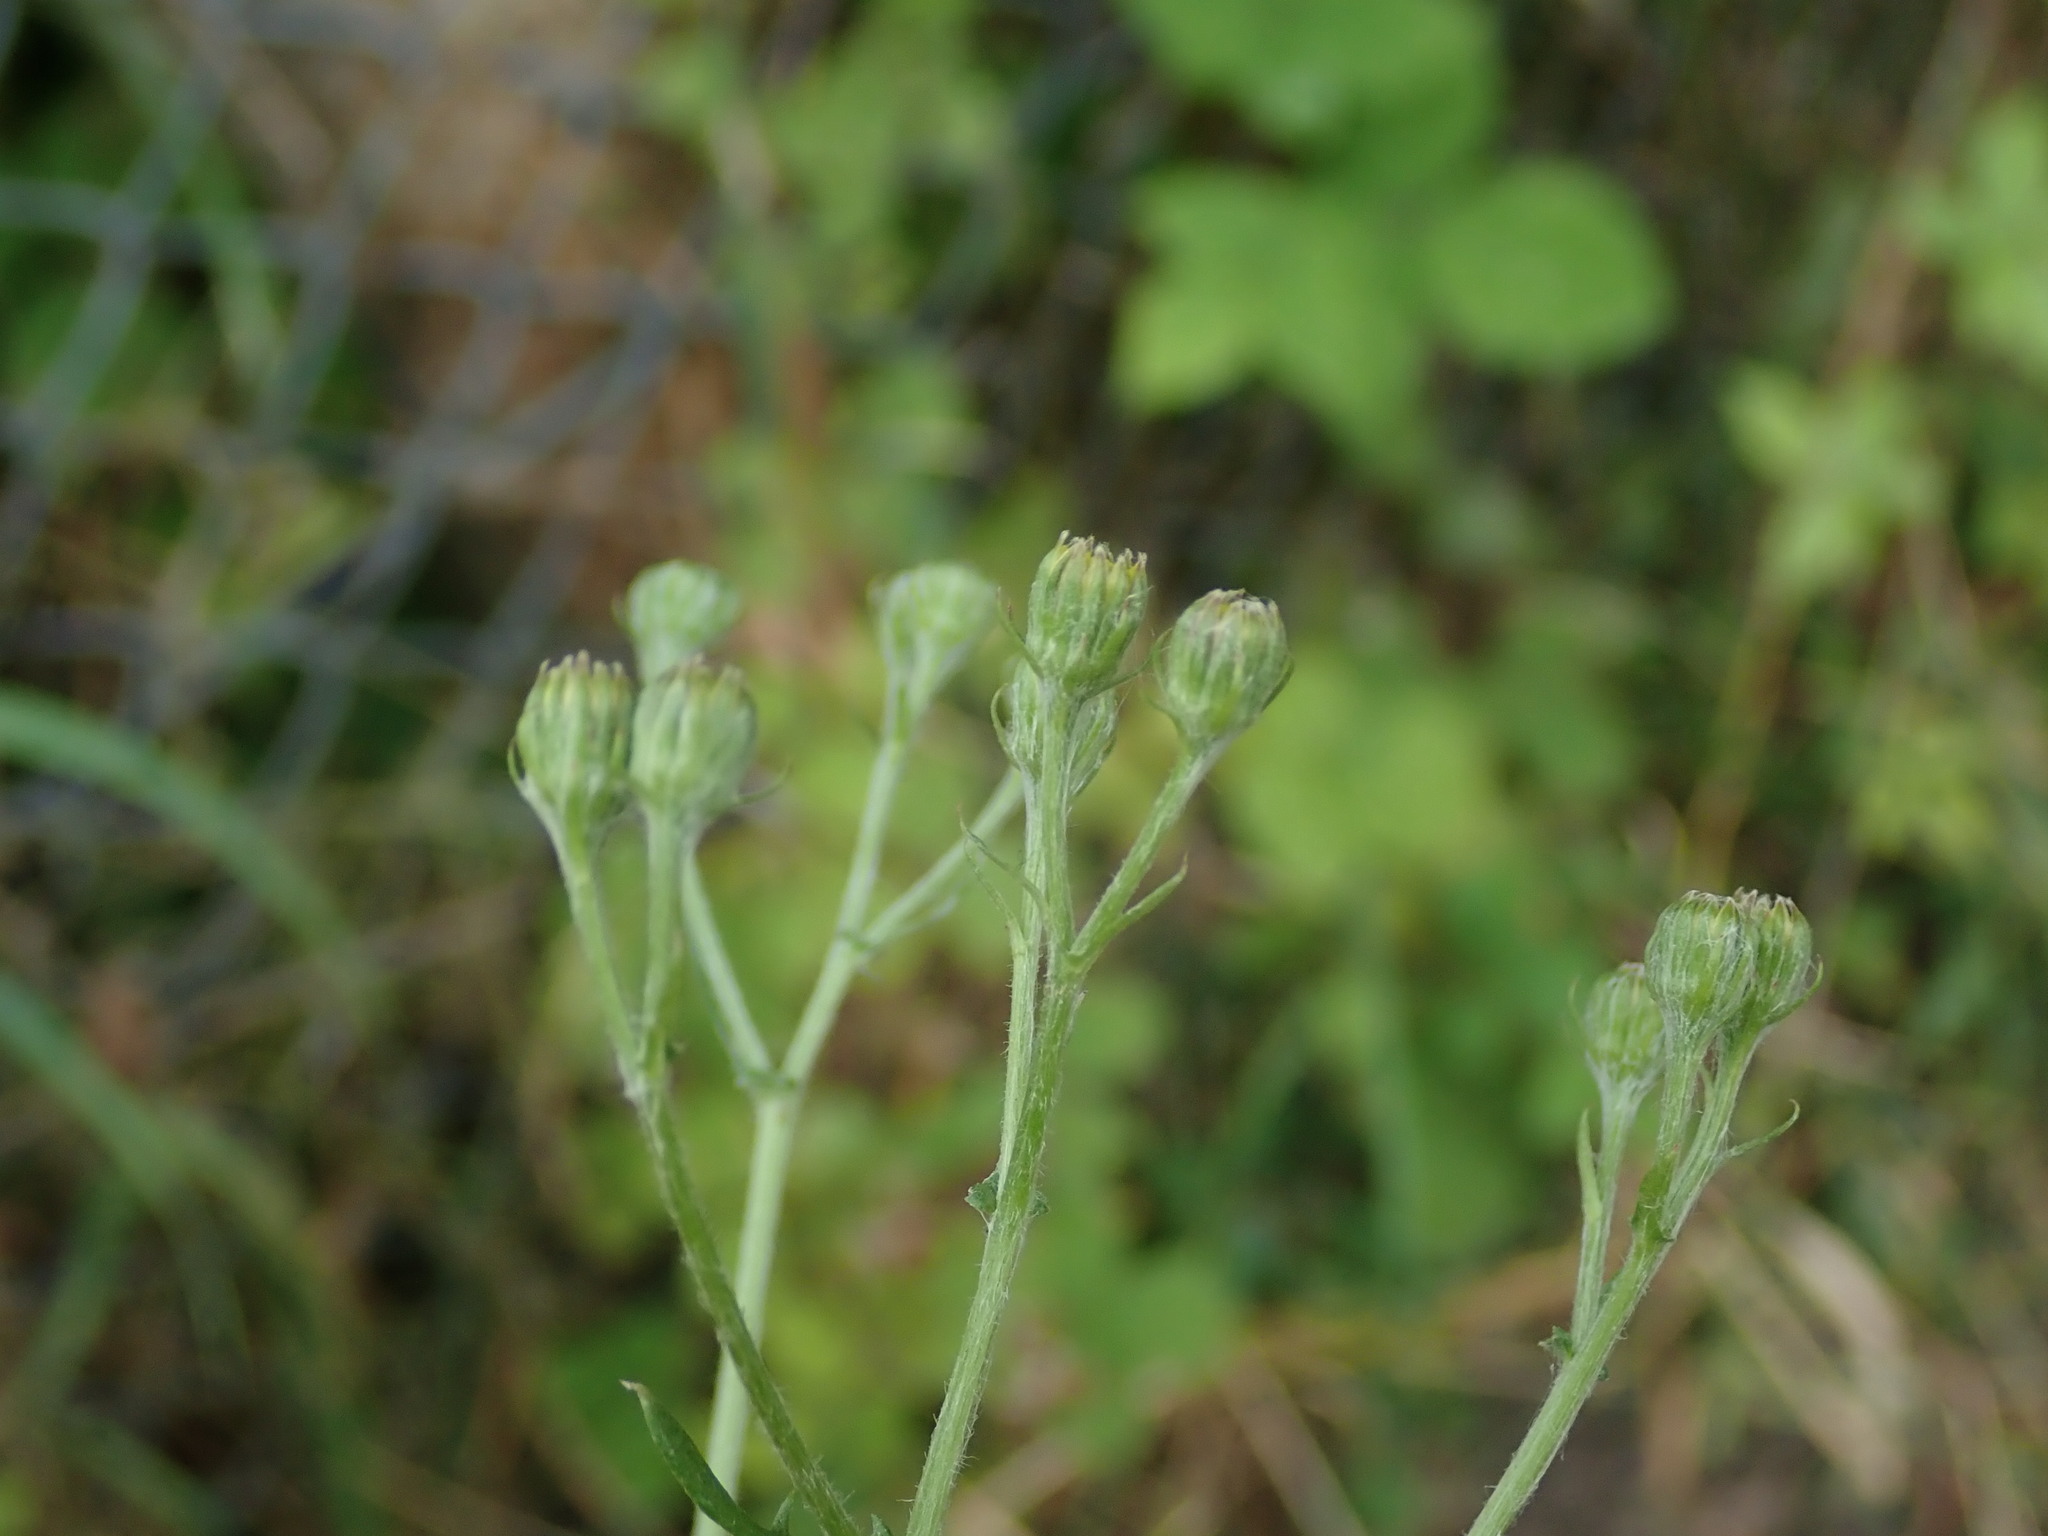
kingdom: Plantae
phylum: Tracheophyta
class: Magnoliopsida
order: Asterales
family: Asteraceae
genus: Jacobaea
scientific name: Jacobaea erucifolia
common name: Hoary ragwort
